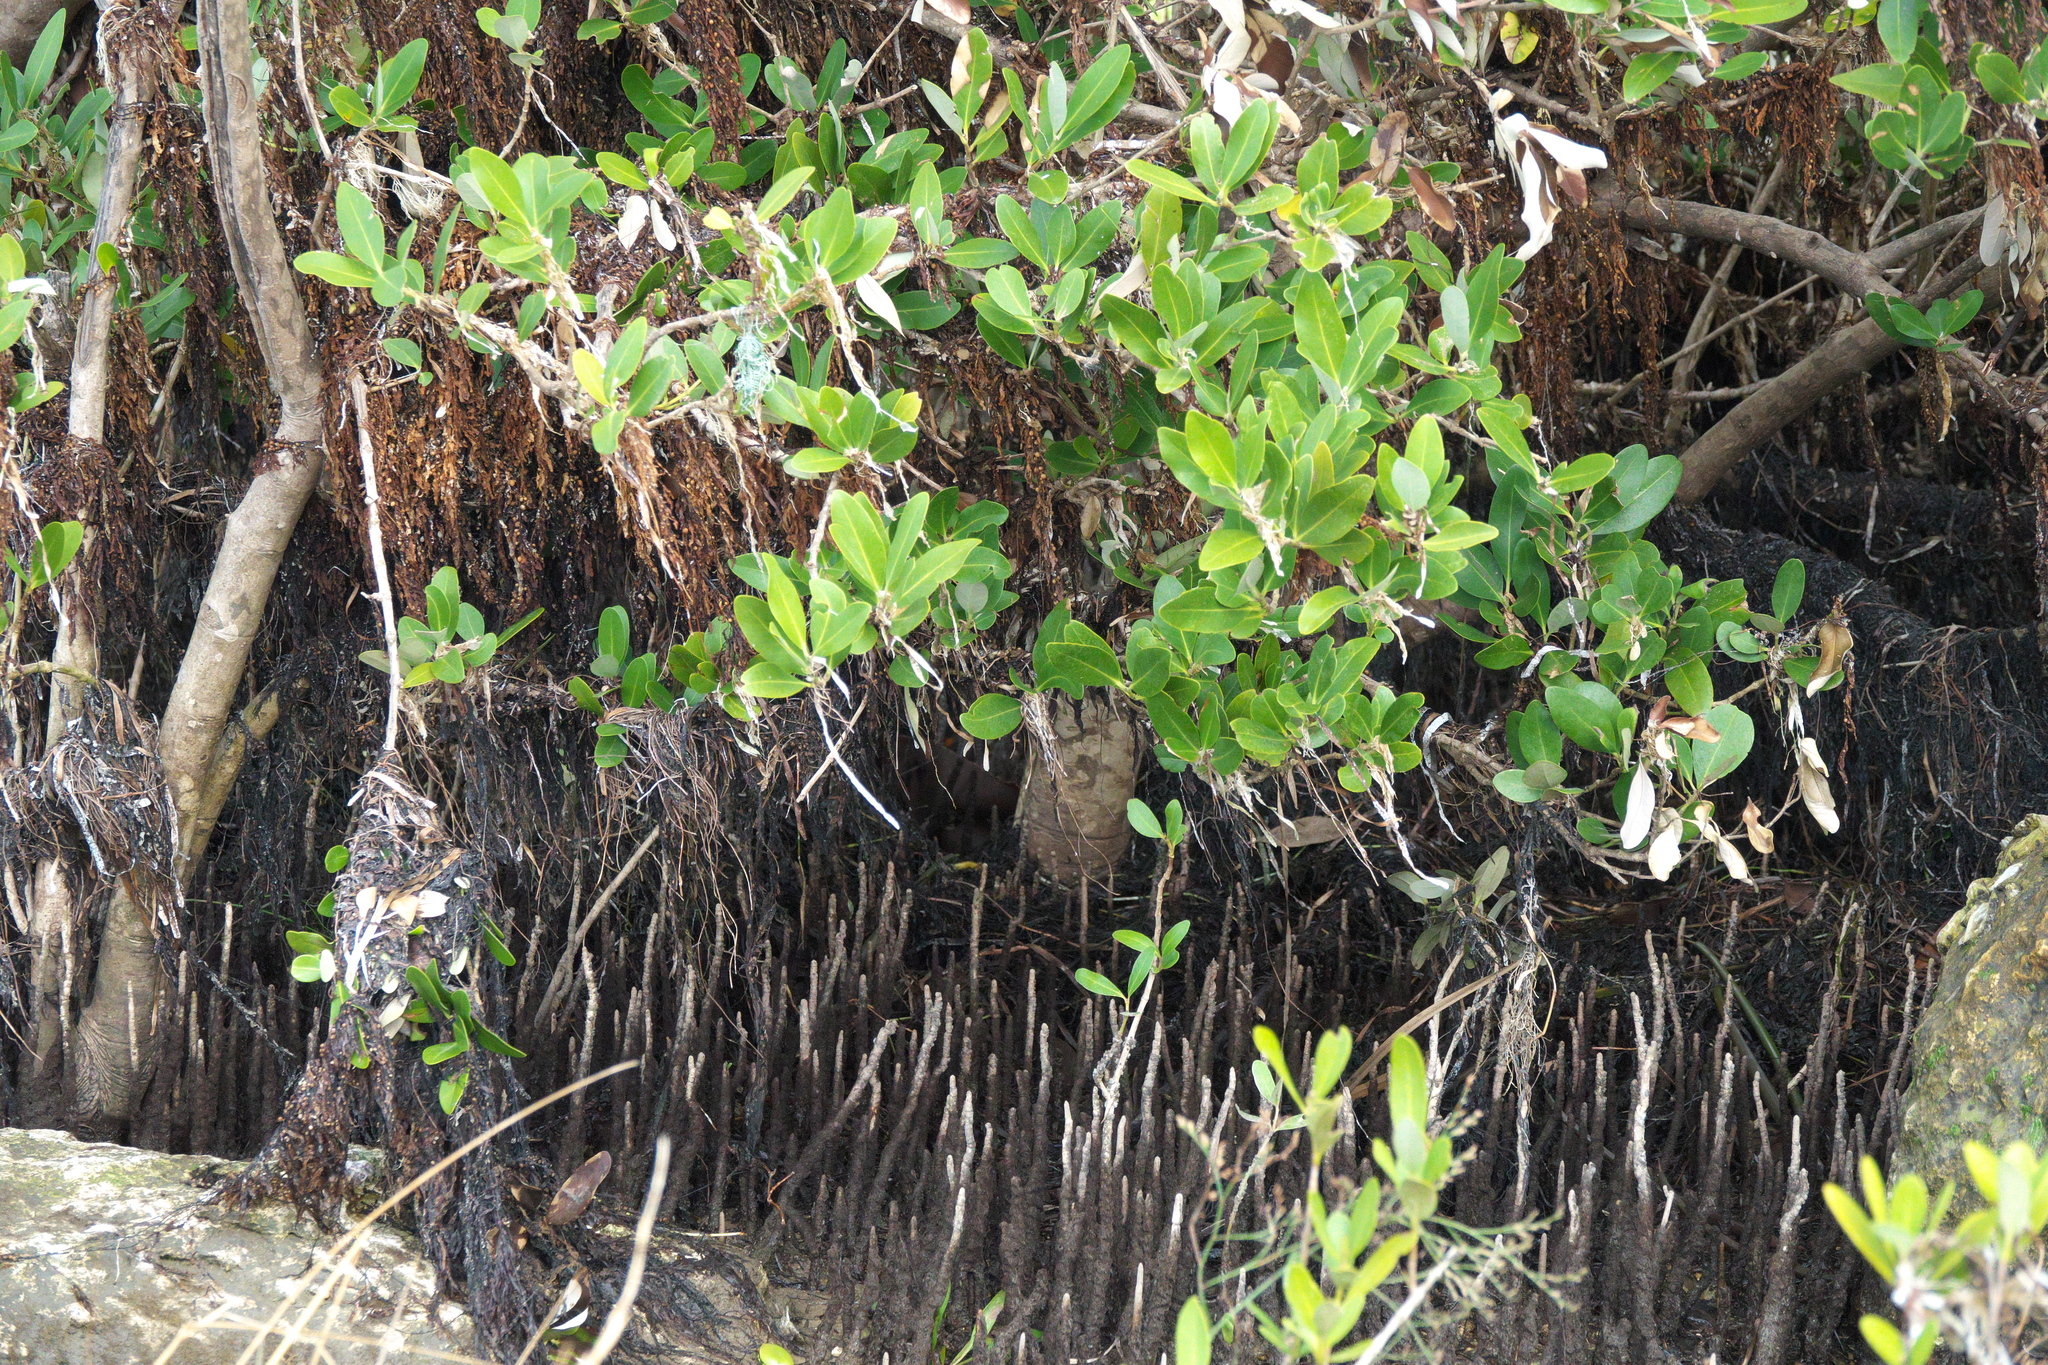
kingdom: Plantae
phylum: Tracheophyta
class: Magnoliopsida
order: Lamiales
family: Acanthaceae
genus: Avicennia
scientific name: Avicennia germinans
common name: Black mangrove
